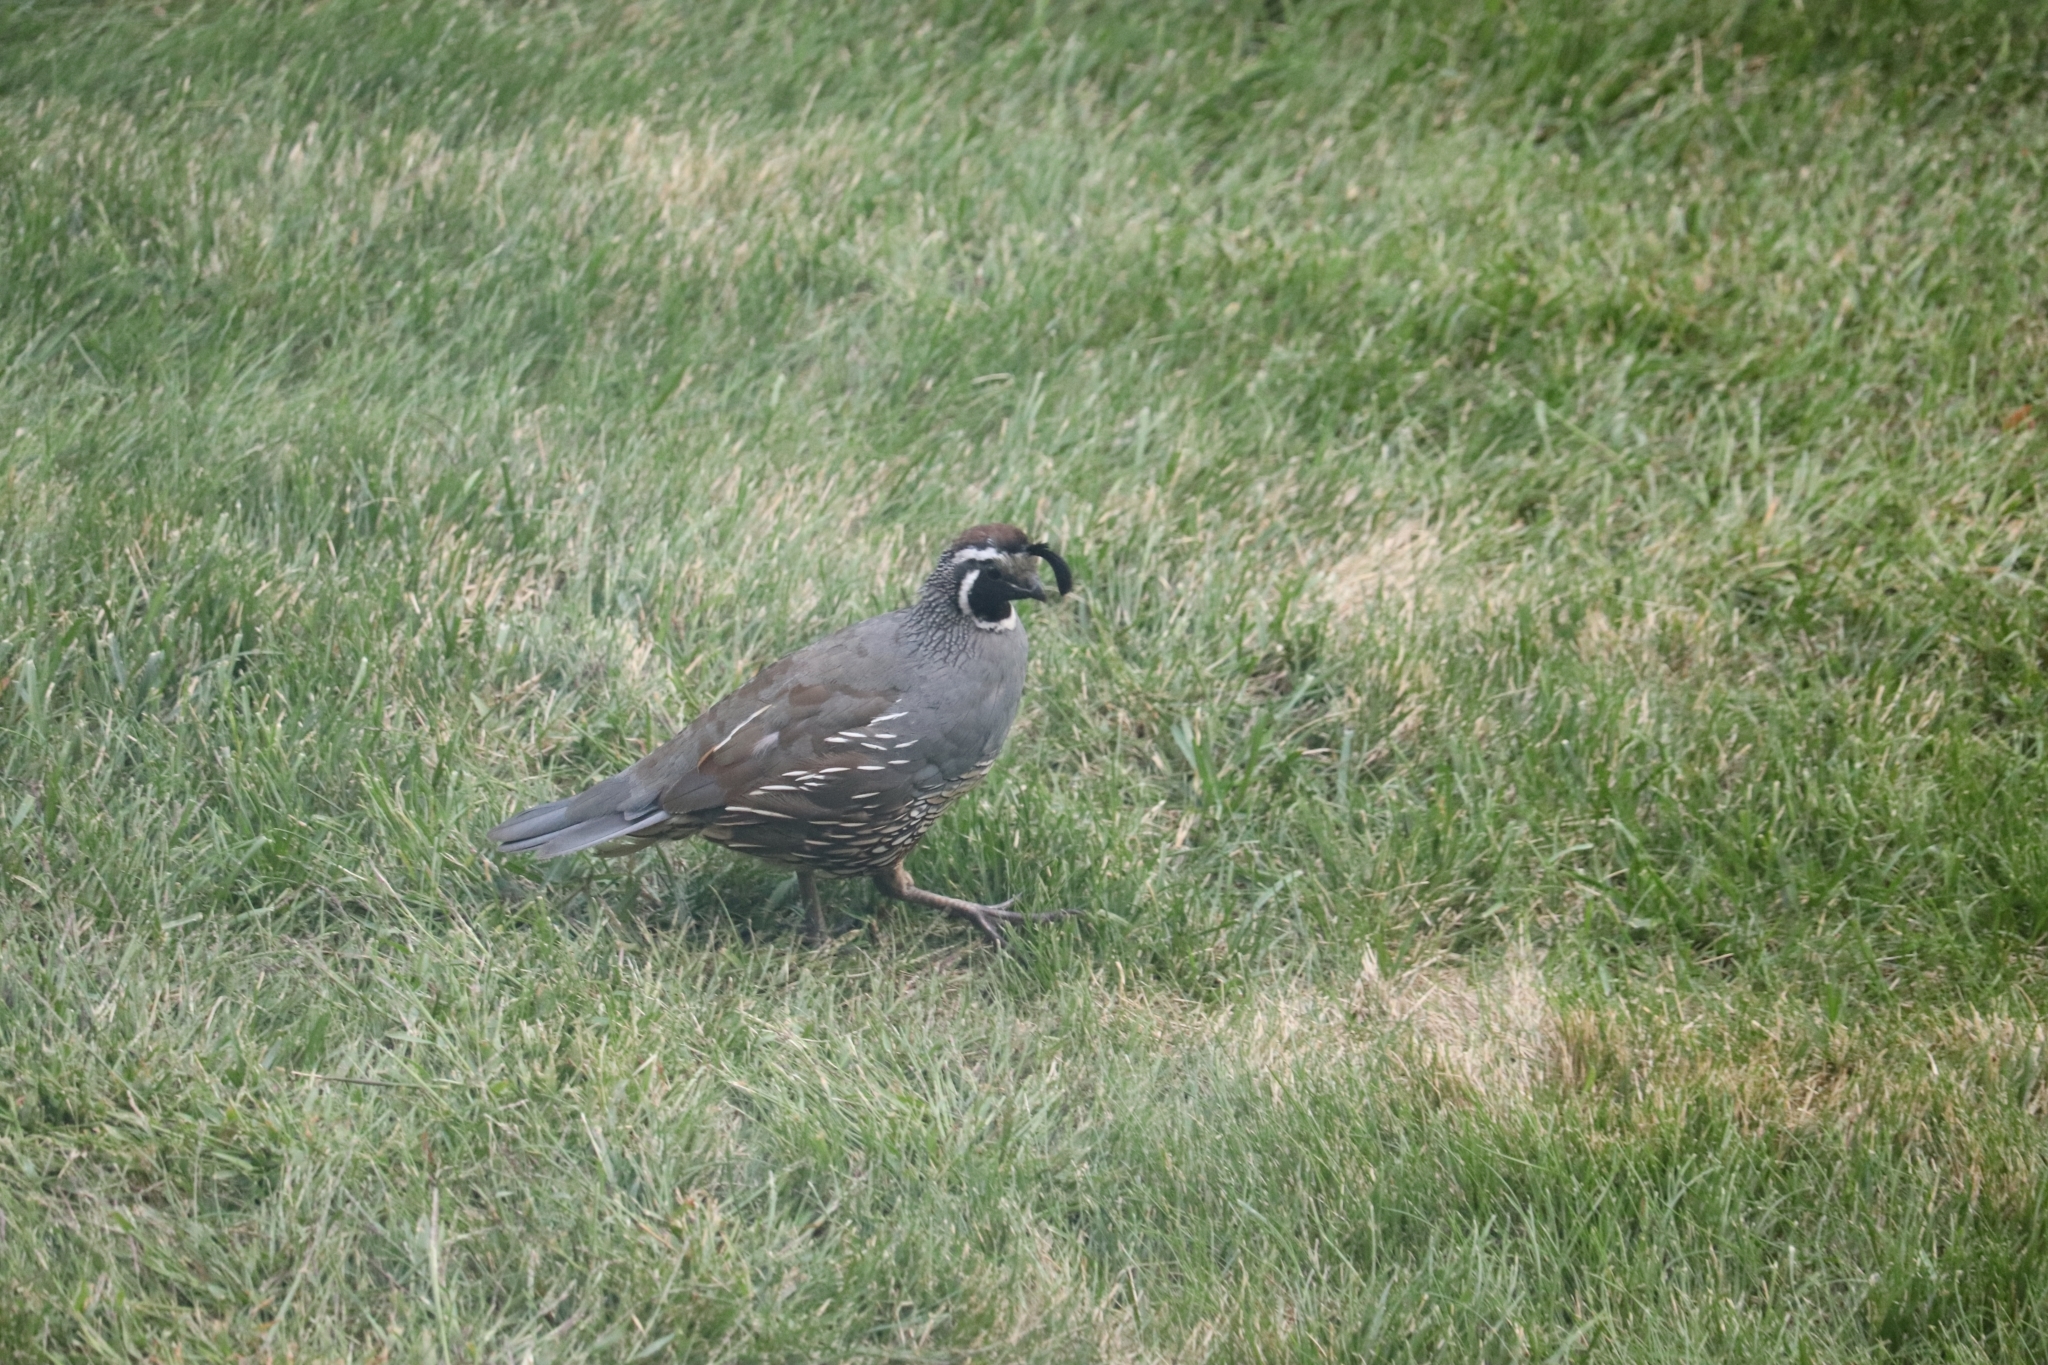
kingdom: Animalia
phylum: Chordata
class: Aves
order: Galliformes
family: Odontophoridae
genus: Callipepla
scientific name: Callipepla californica
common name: California quail
